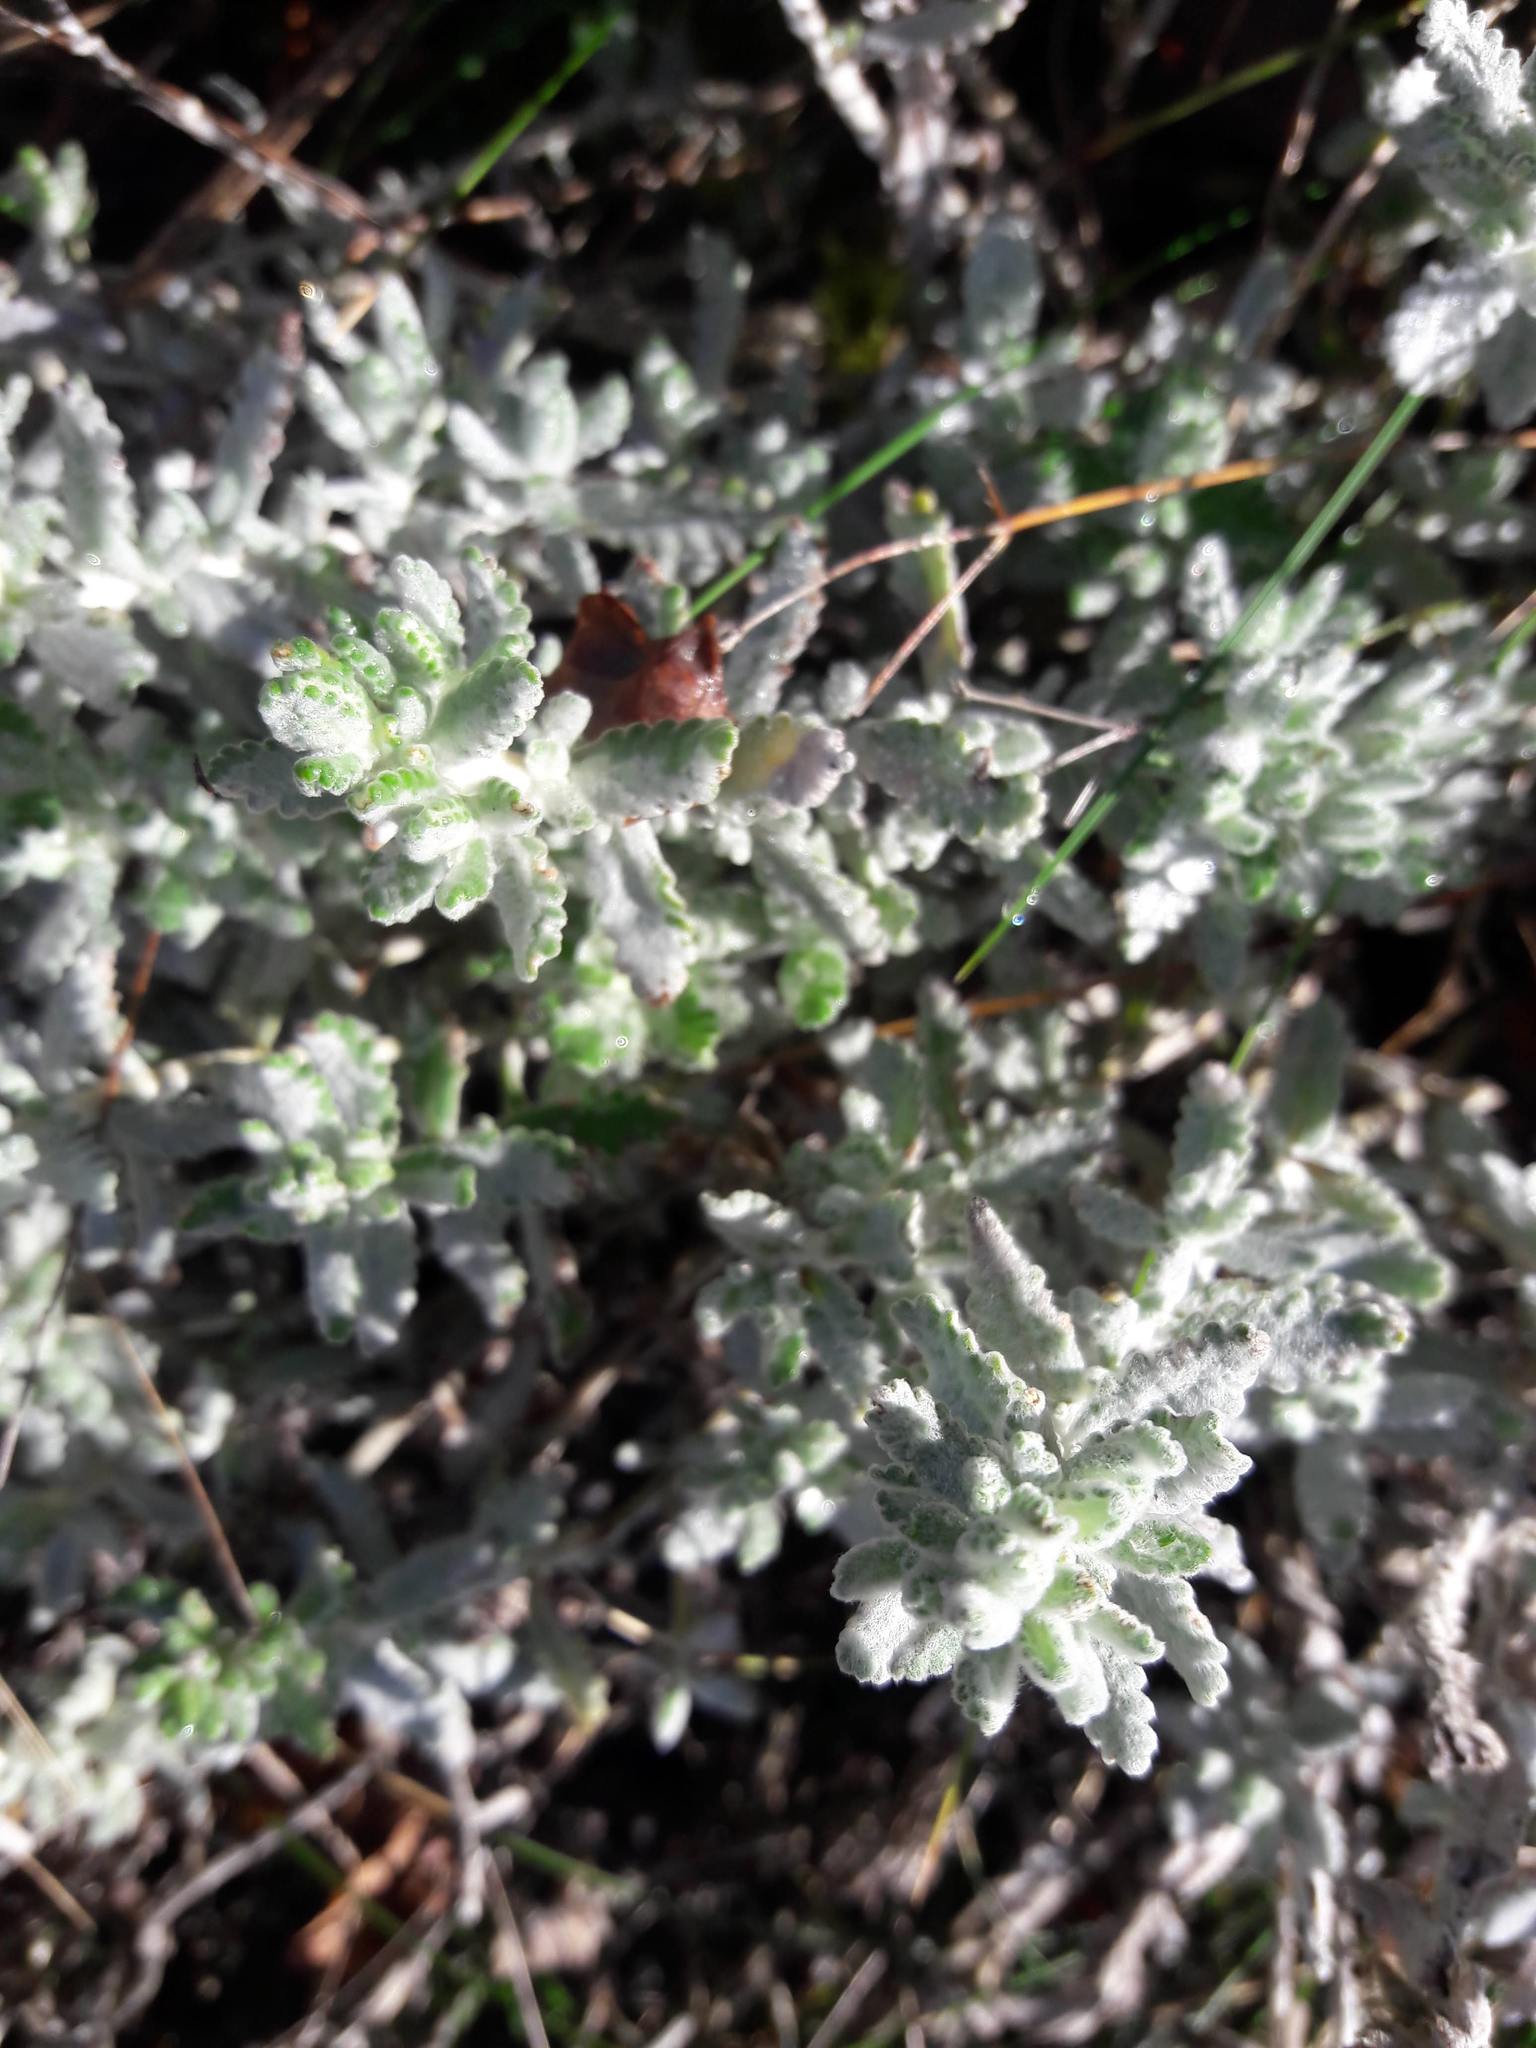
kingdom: Plantae
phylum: Tracheophyta
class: Magnoliopsida
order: Lamiales
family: Lamiaceae
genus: Teucrium
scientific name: Teucrium polium
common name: Poley
